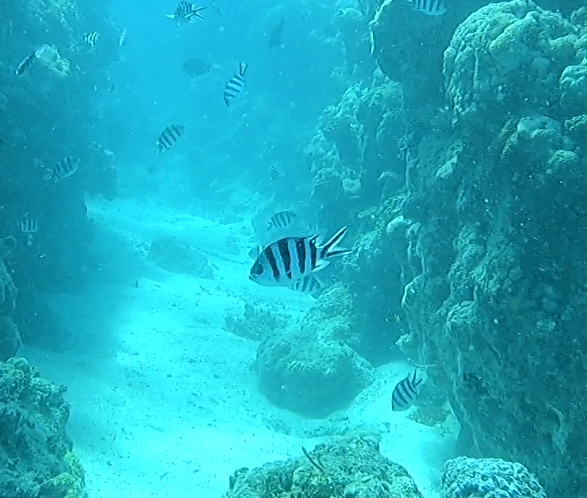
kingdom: Animalia
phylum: Chordata
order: Perciformes
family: Pomacentridae
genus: Abudefduf
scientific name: Abudefduf sexfasciatus
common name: Scissortail sergeant
